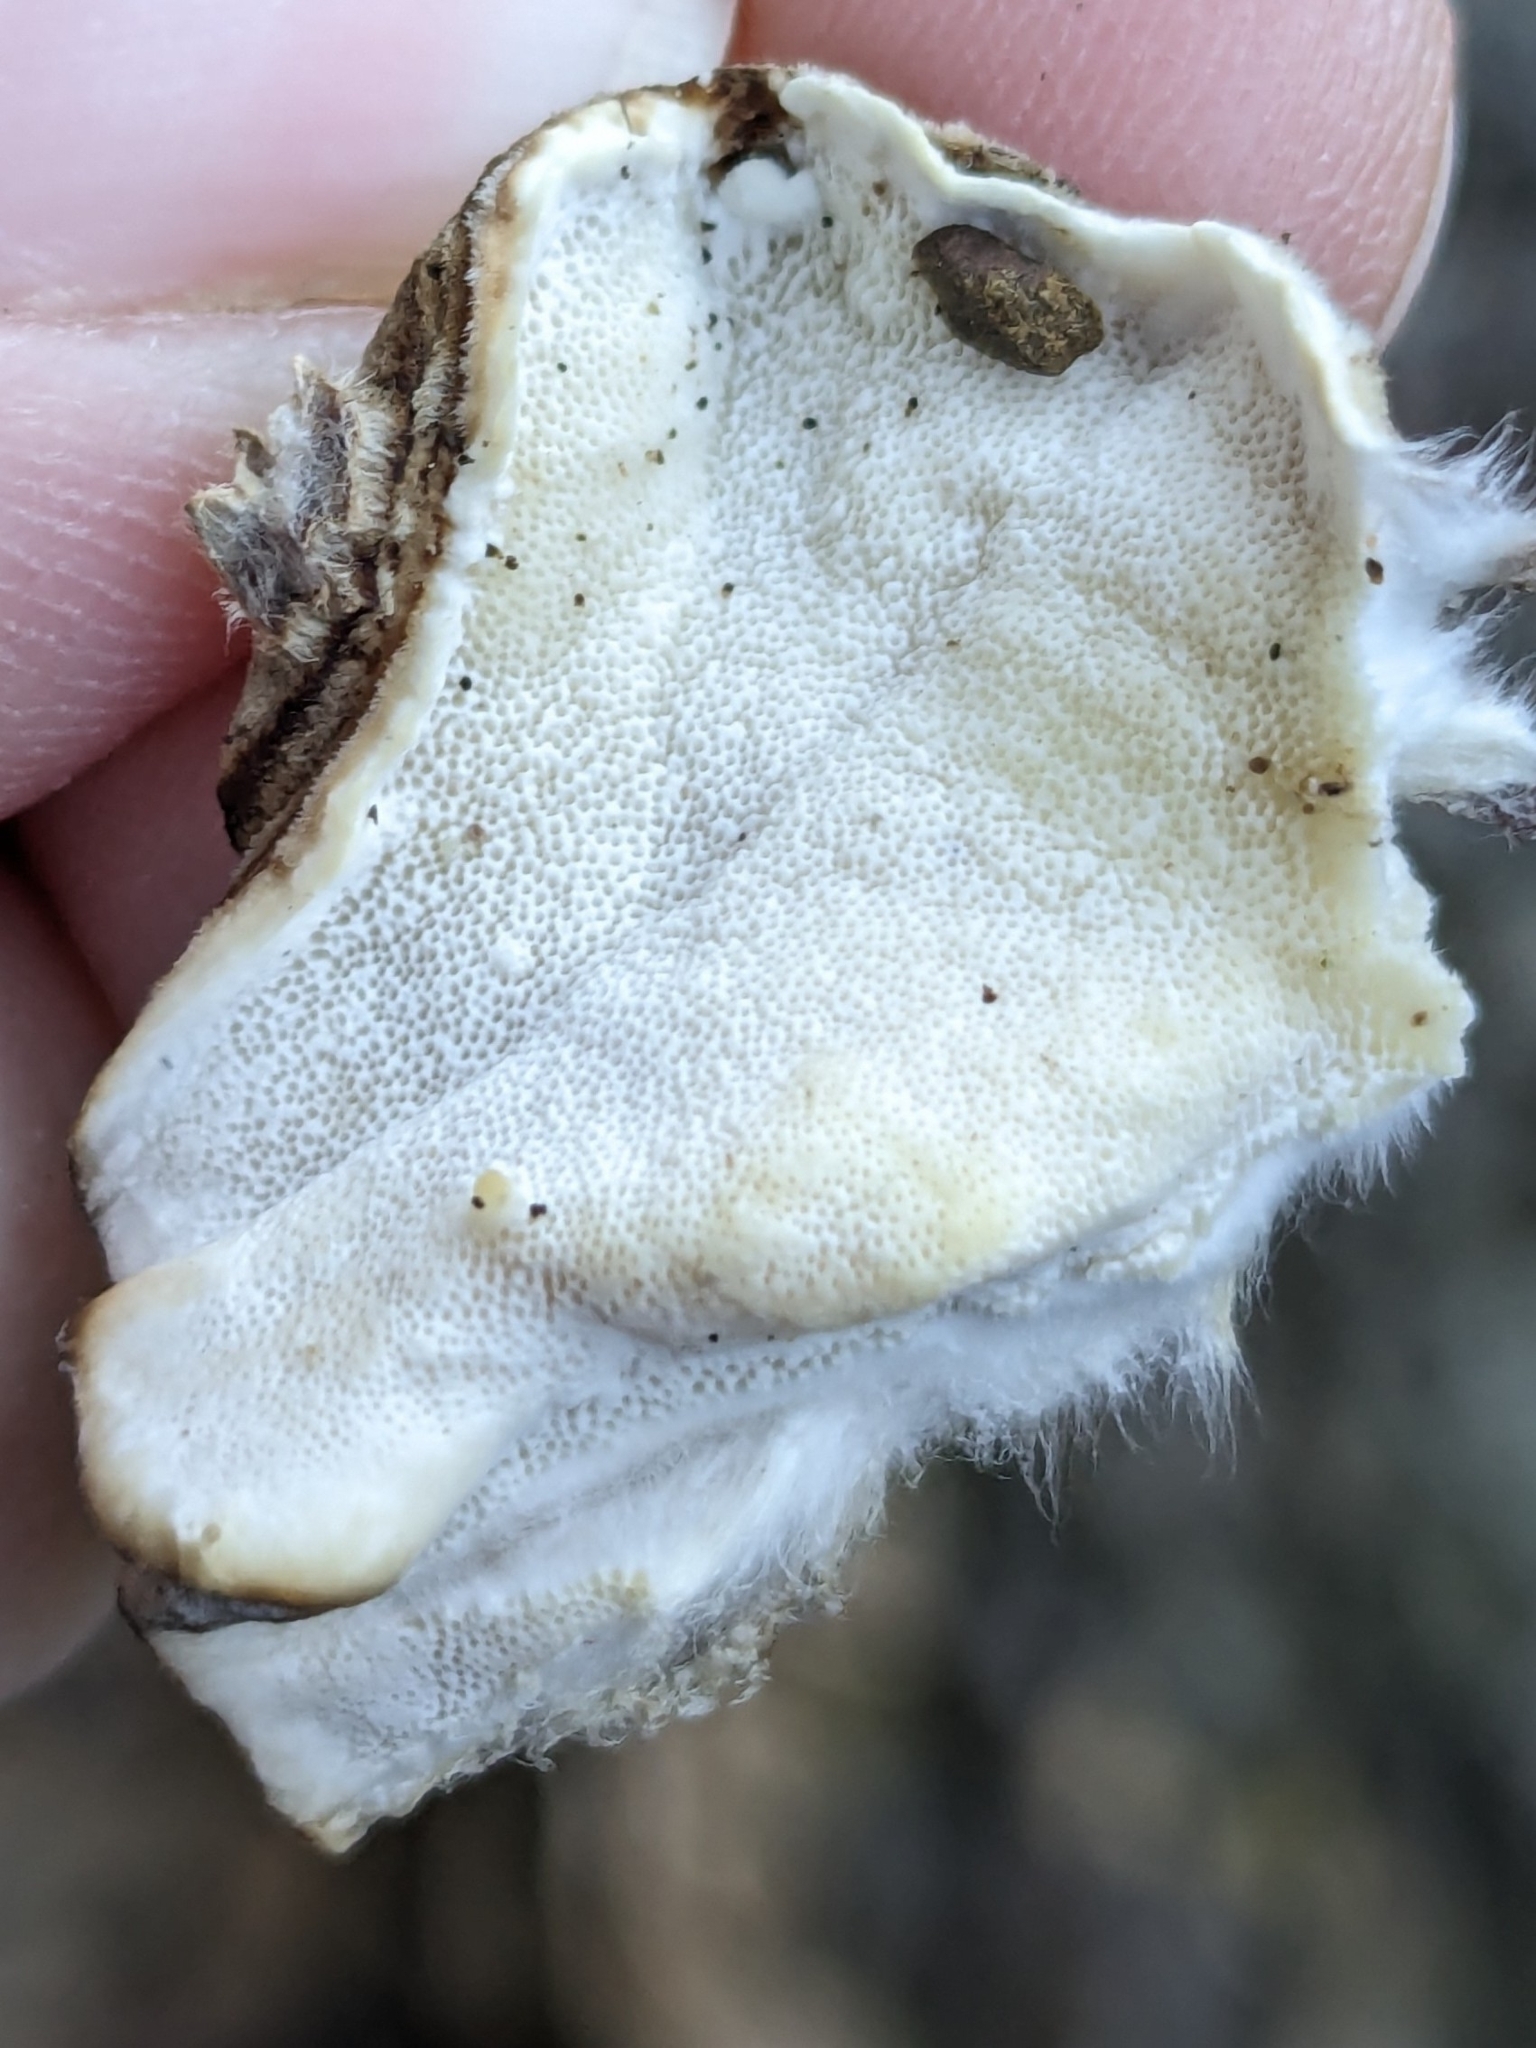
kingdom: Fungi
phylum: Basidiomycota
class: Agaricomycetes
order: Polyporales
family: Polyporaceae
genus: Trametes
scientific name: Trametes versicolor
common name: Turkeytail
